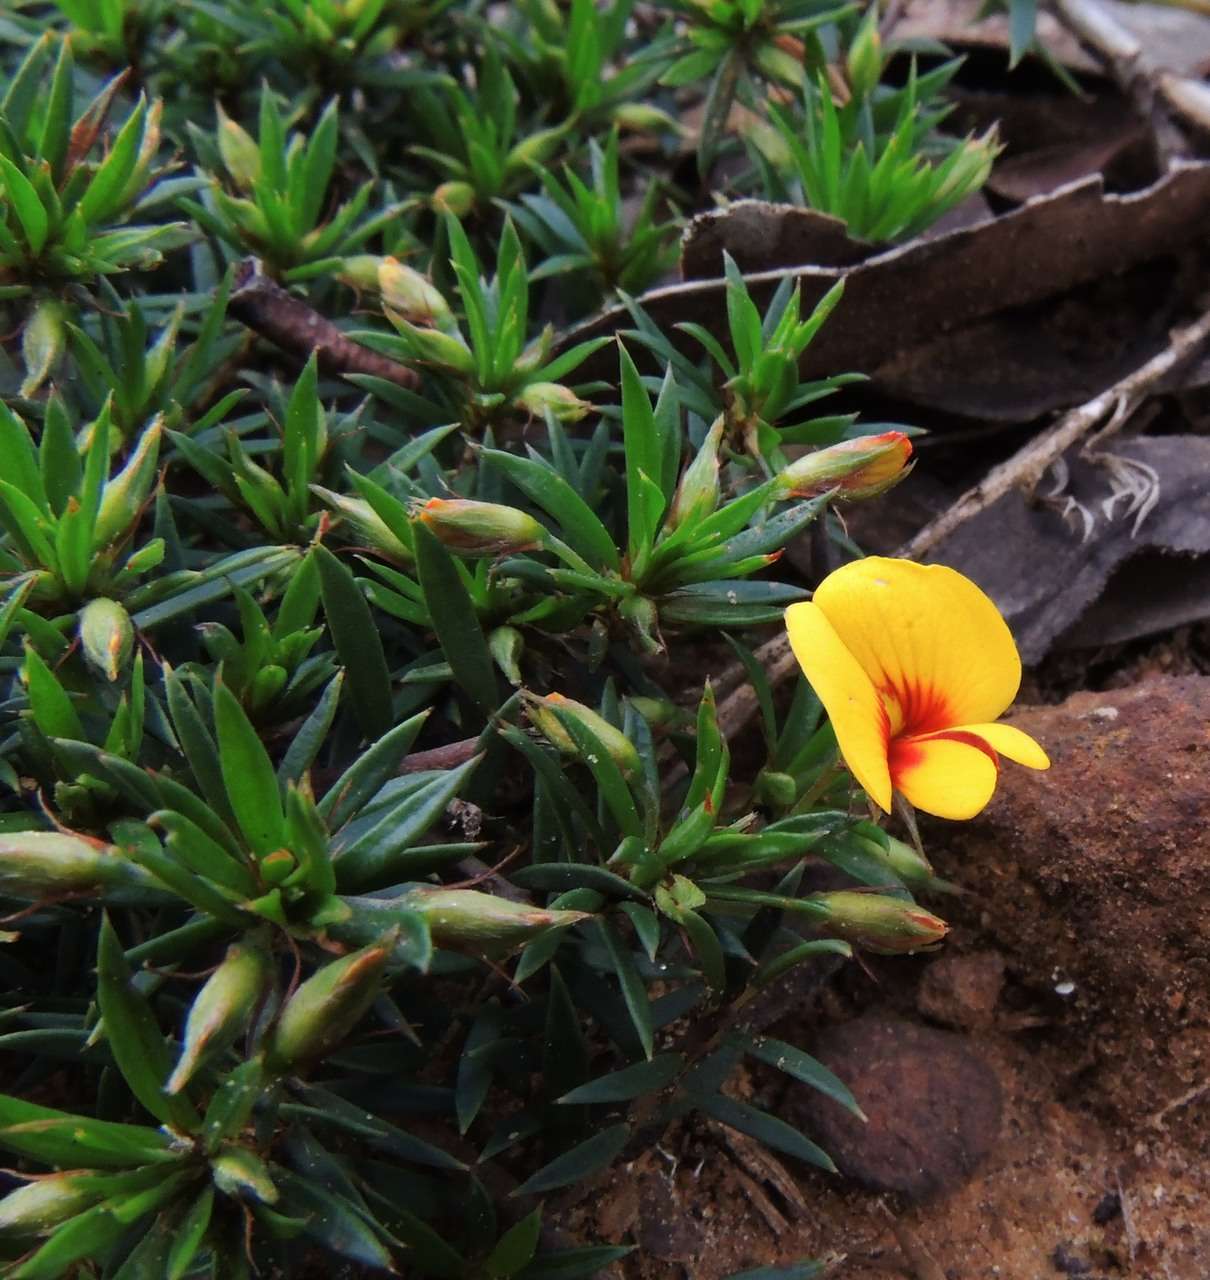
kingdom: Plantae
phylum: Tracheophyta
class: Magnoliopsida
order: Fabales
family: Fabaceae
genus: Pultenaea
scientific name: Pultenaea pedunculata
